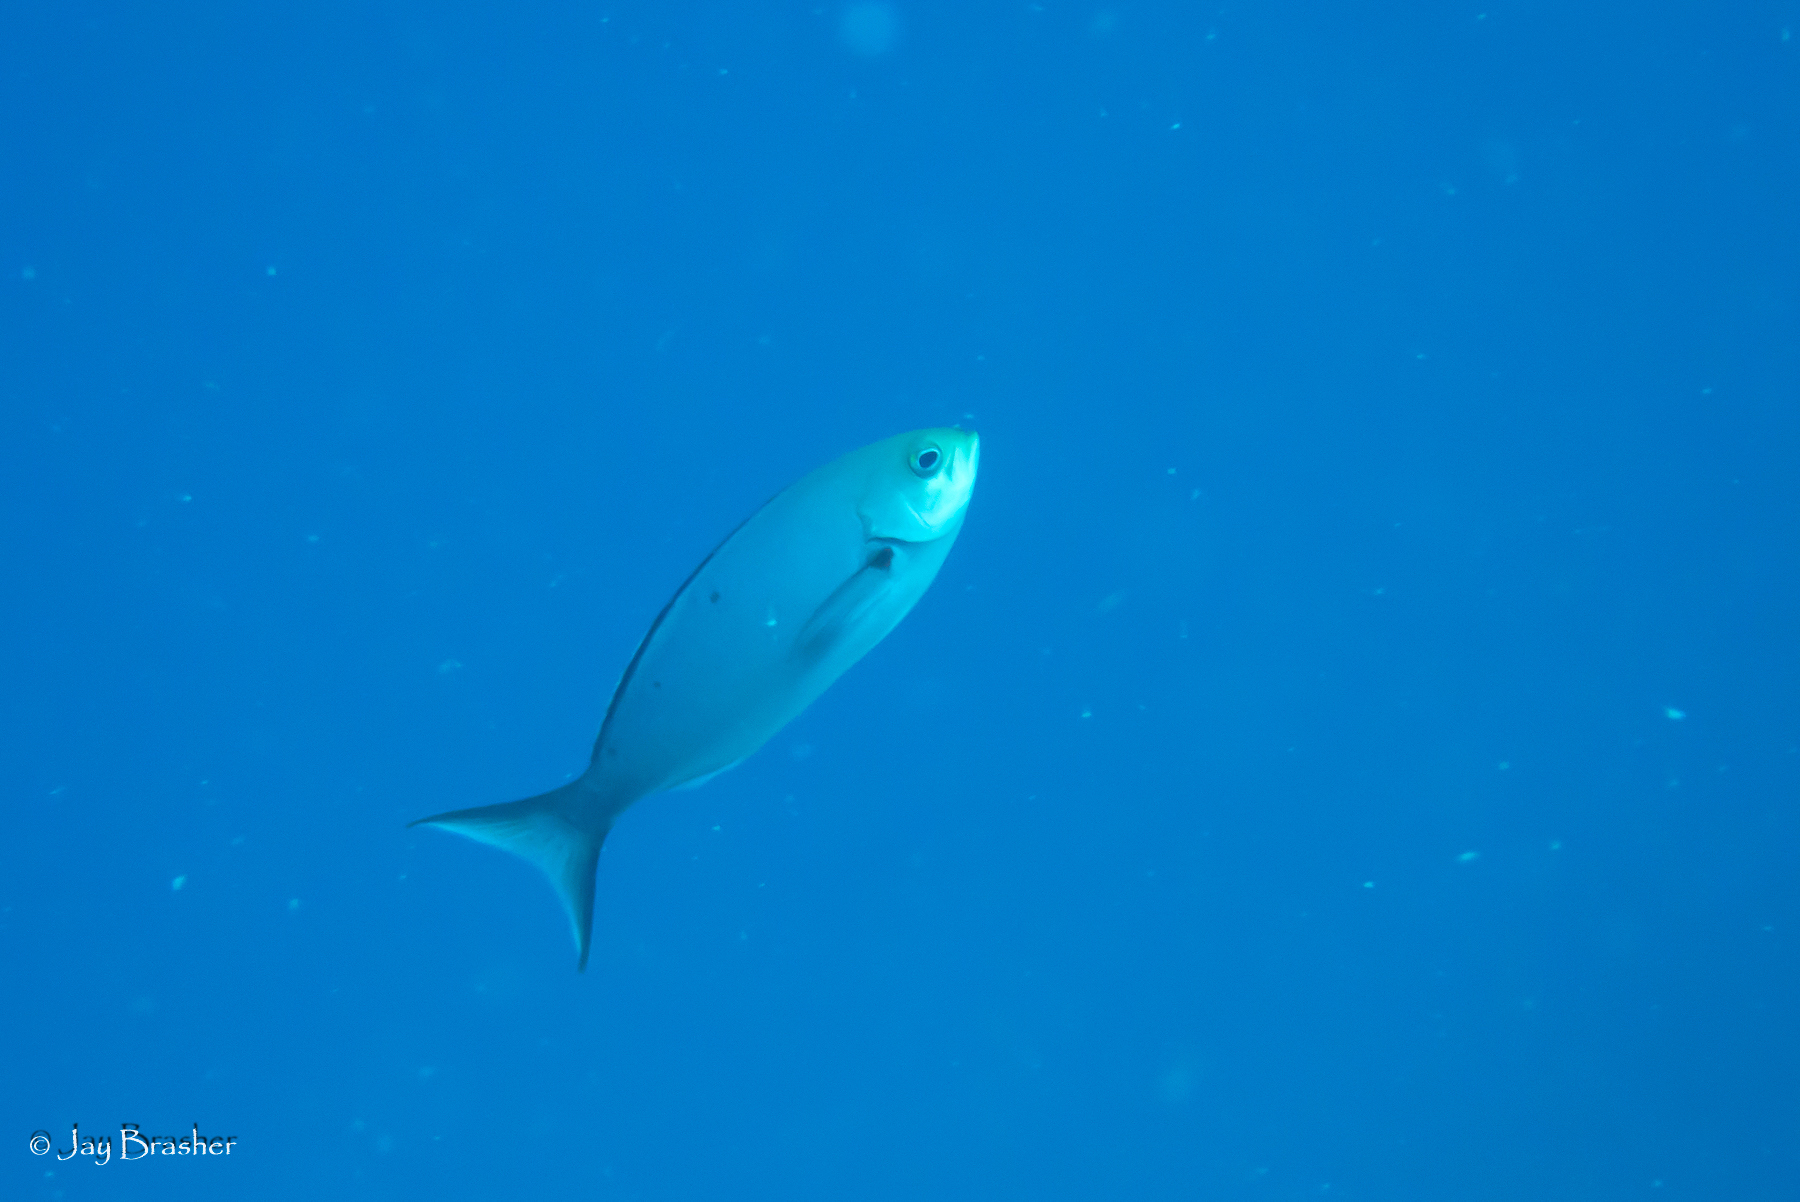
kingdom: Animalia
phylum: Chordata
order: Perciformes
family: Serranidae
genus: Paranthias
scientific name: Paranthias furcifer
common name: Creole-fish
